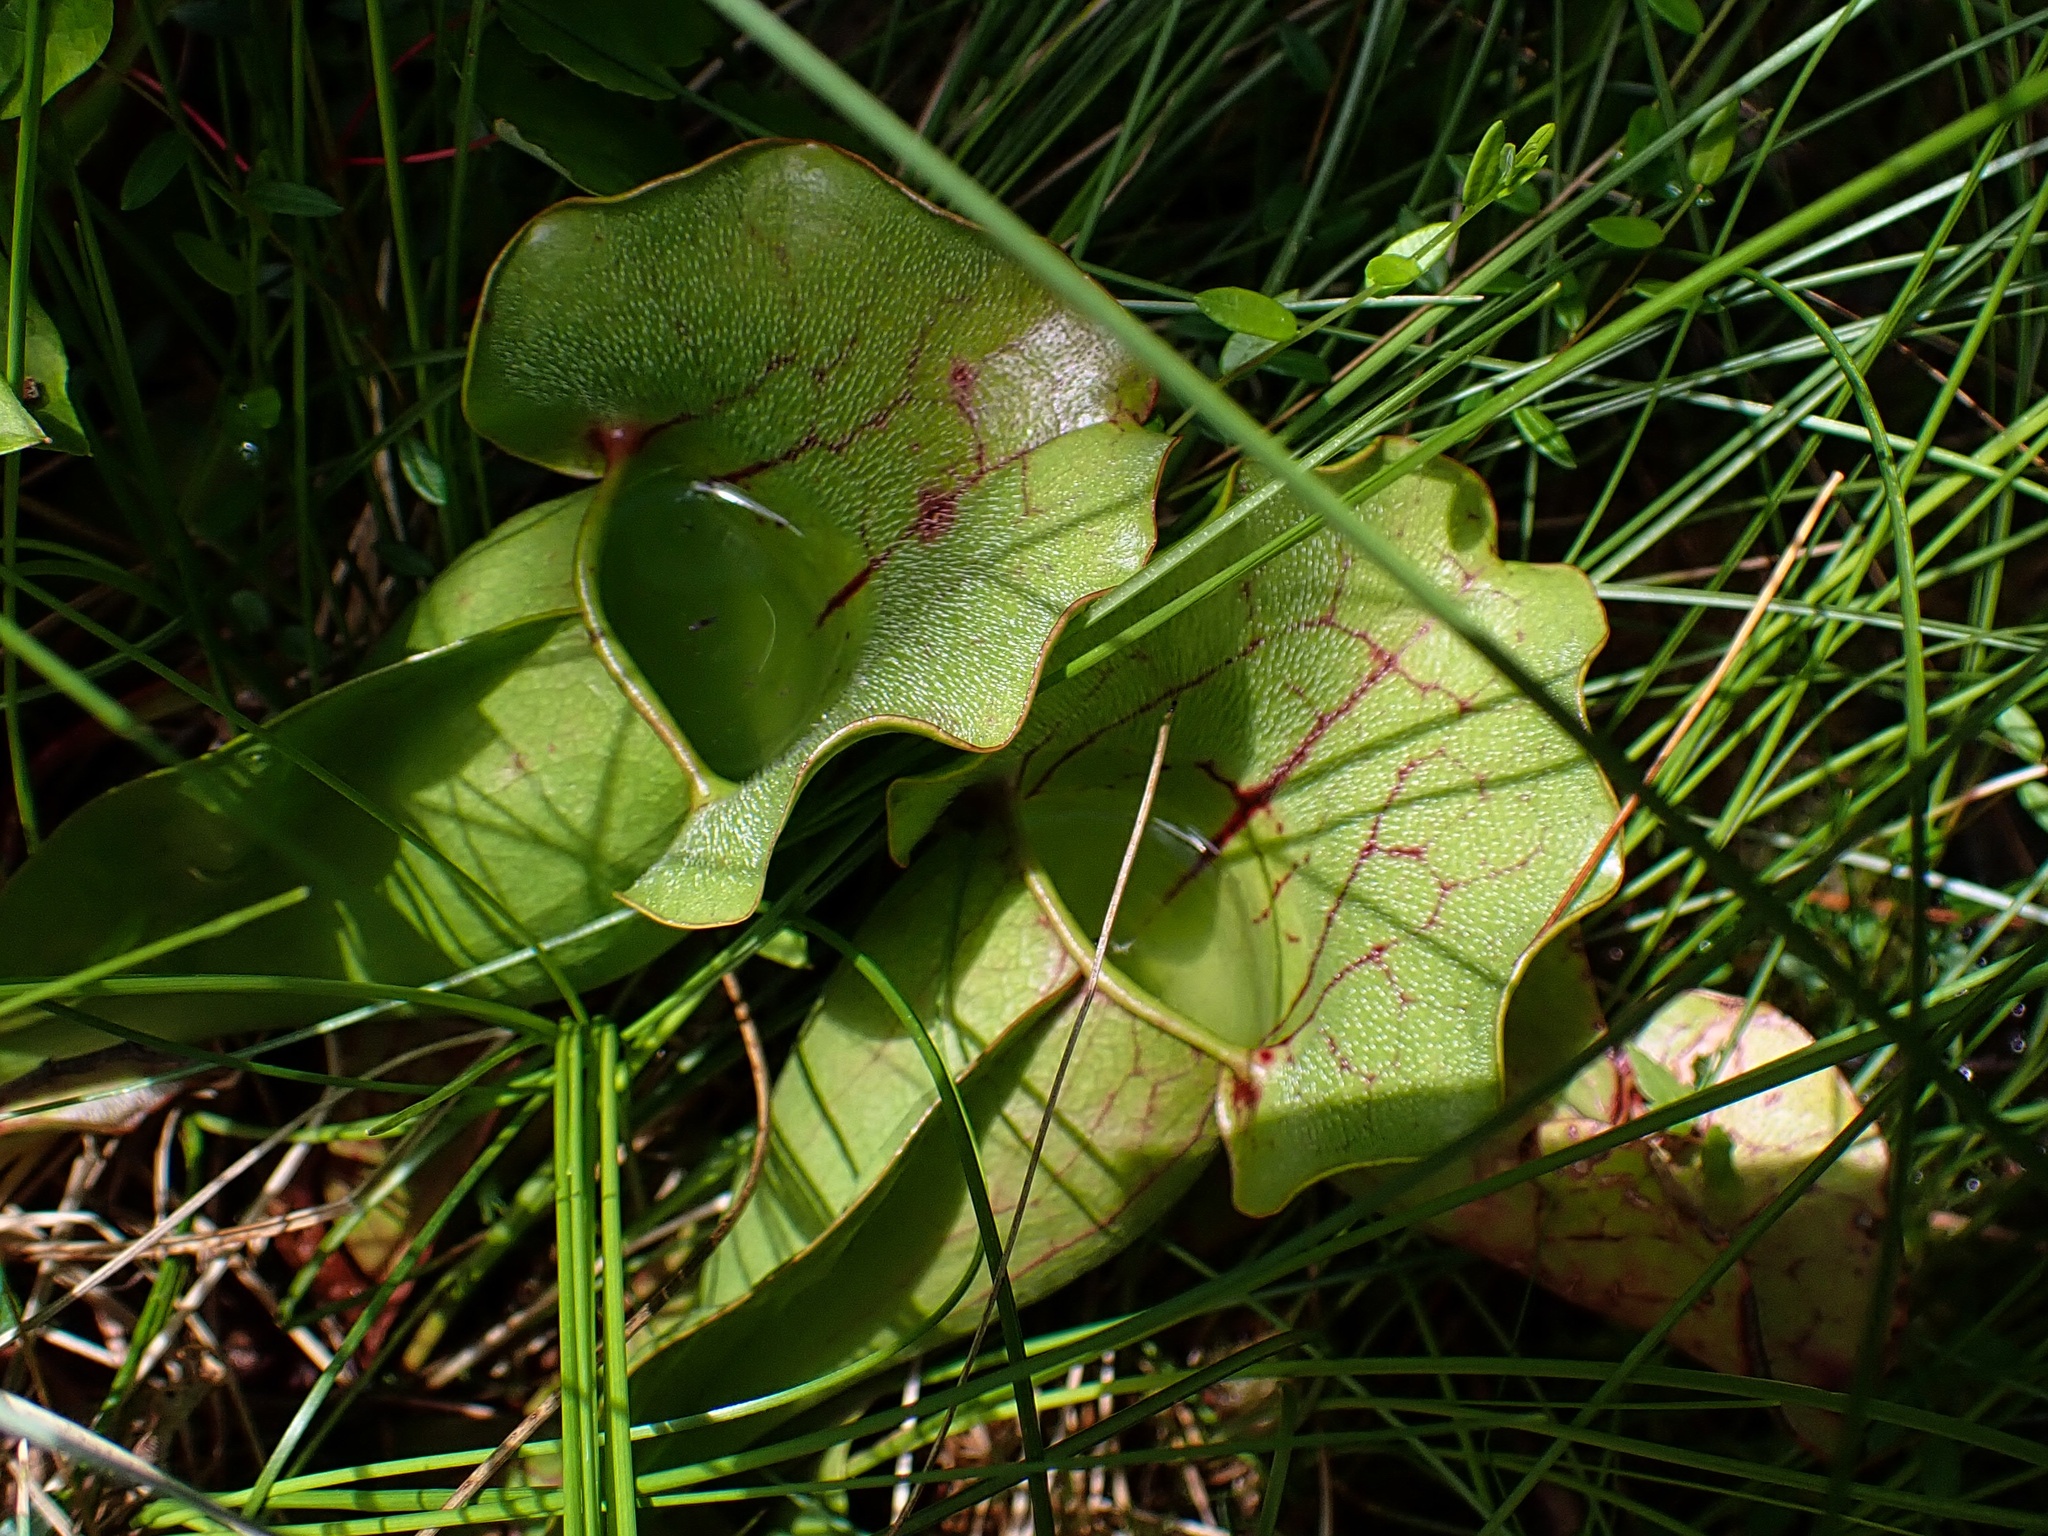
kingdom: Plantae
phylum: Tracheophyta
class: Magnoliopsida
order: Ericales
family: Sarraceniaceae
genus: Sarracenia
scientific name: Sarracenia purpurea
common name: Pitcherplant
